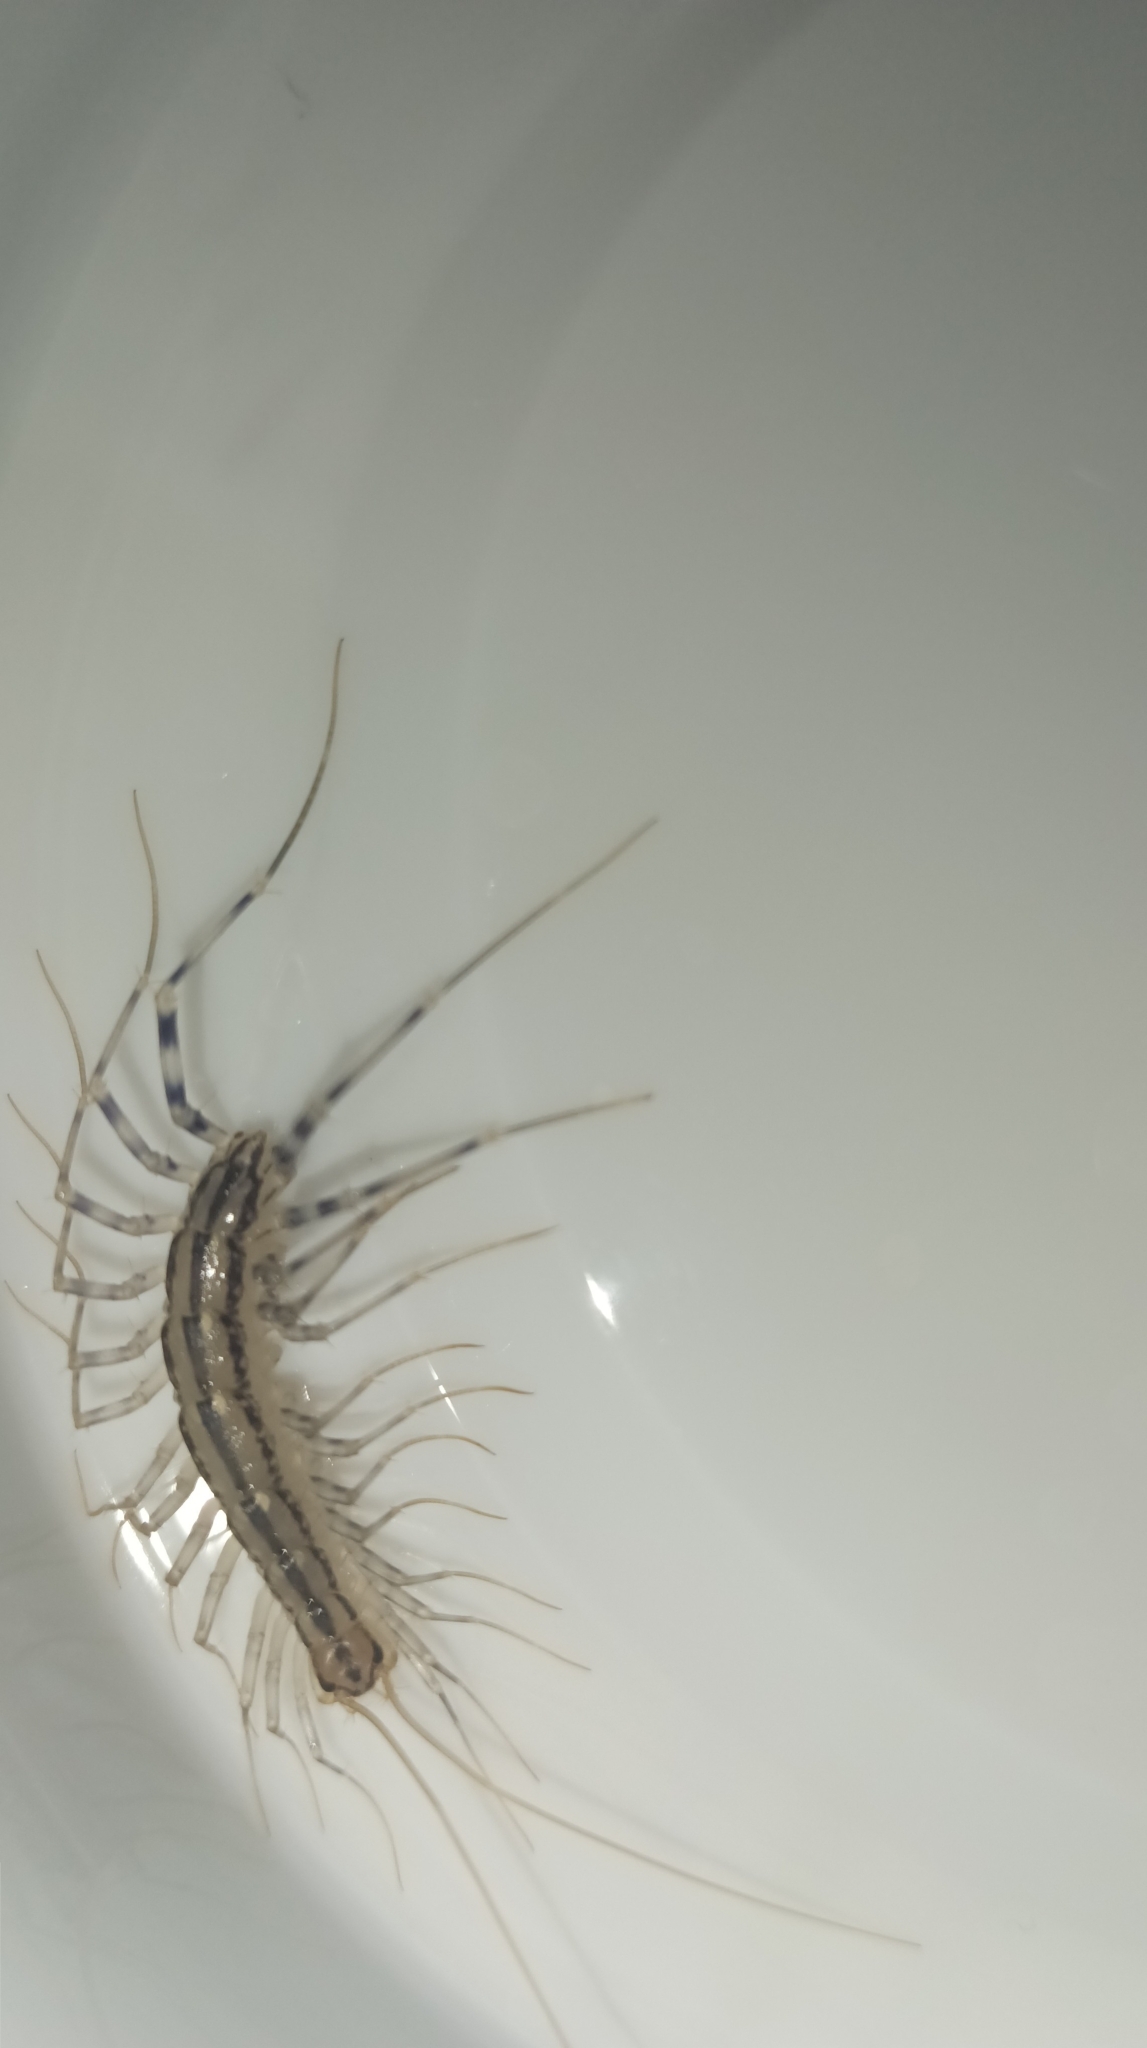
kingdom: Animalia
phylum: Arthropoda
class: Chilopoda
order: Scutigeromorpha
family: Scutigeridae
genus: Scutigera
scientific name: Scutigera coleoptrata
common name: House centipede
